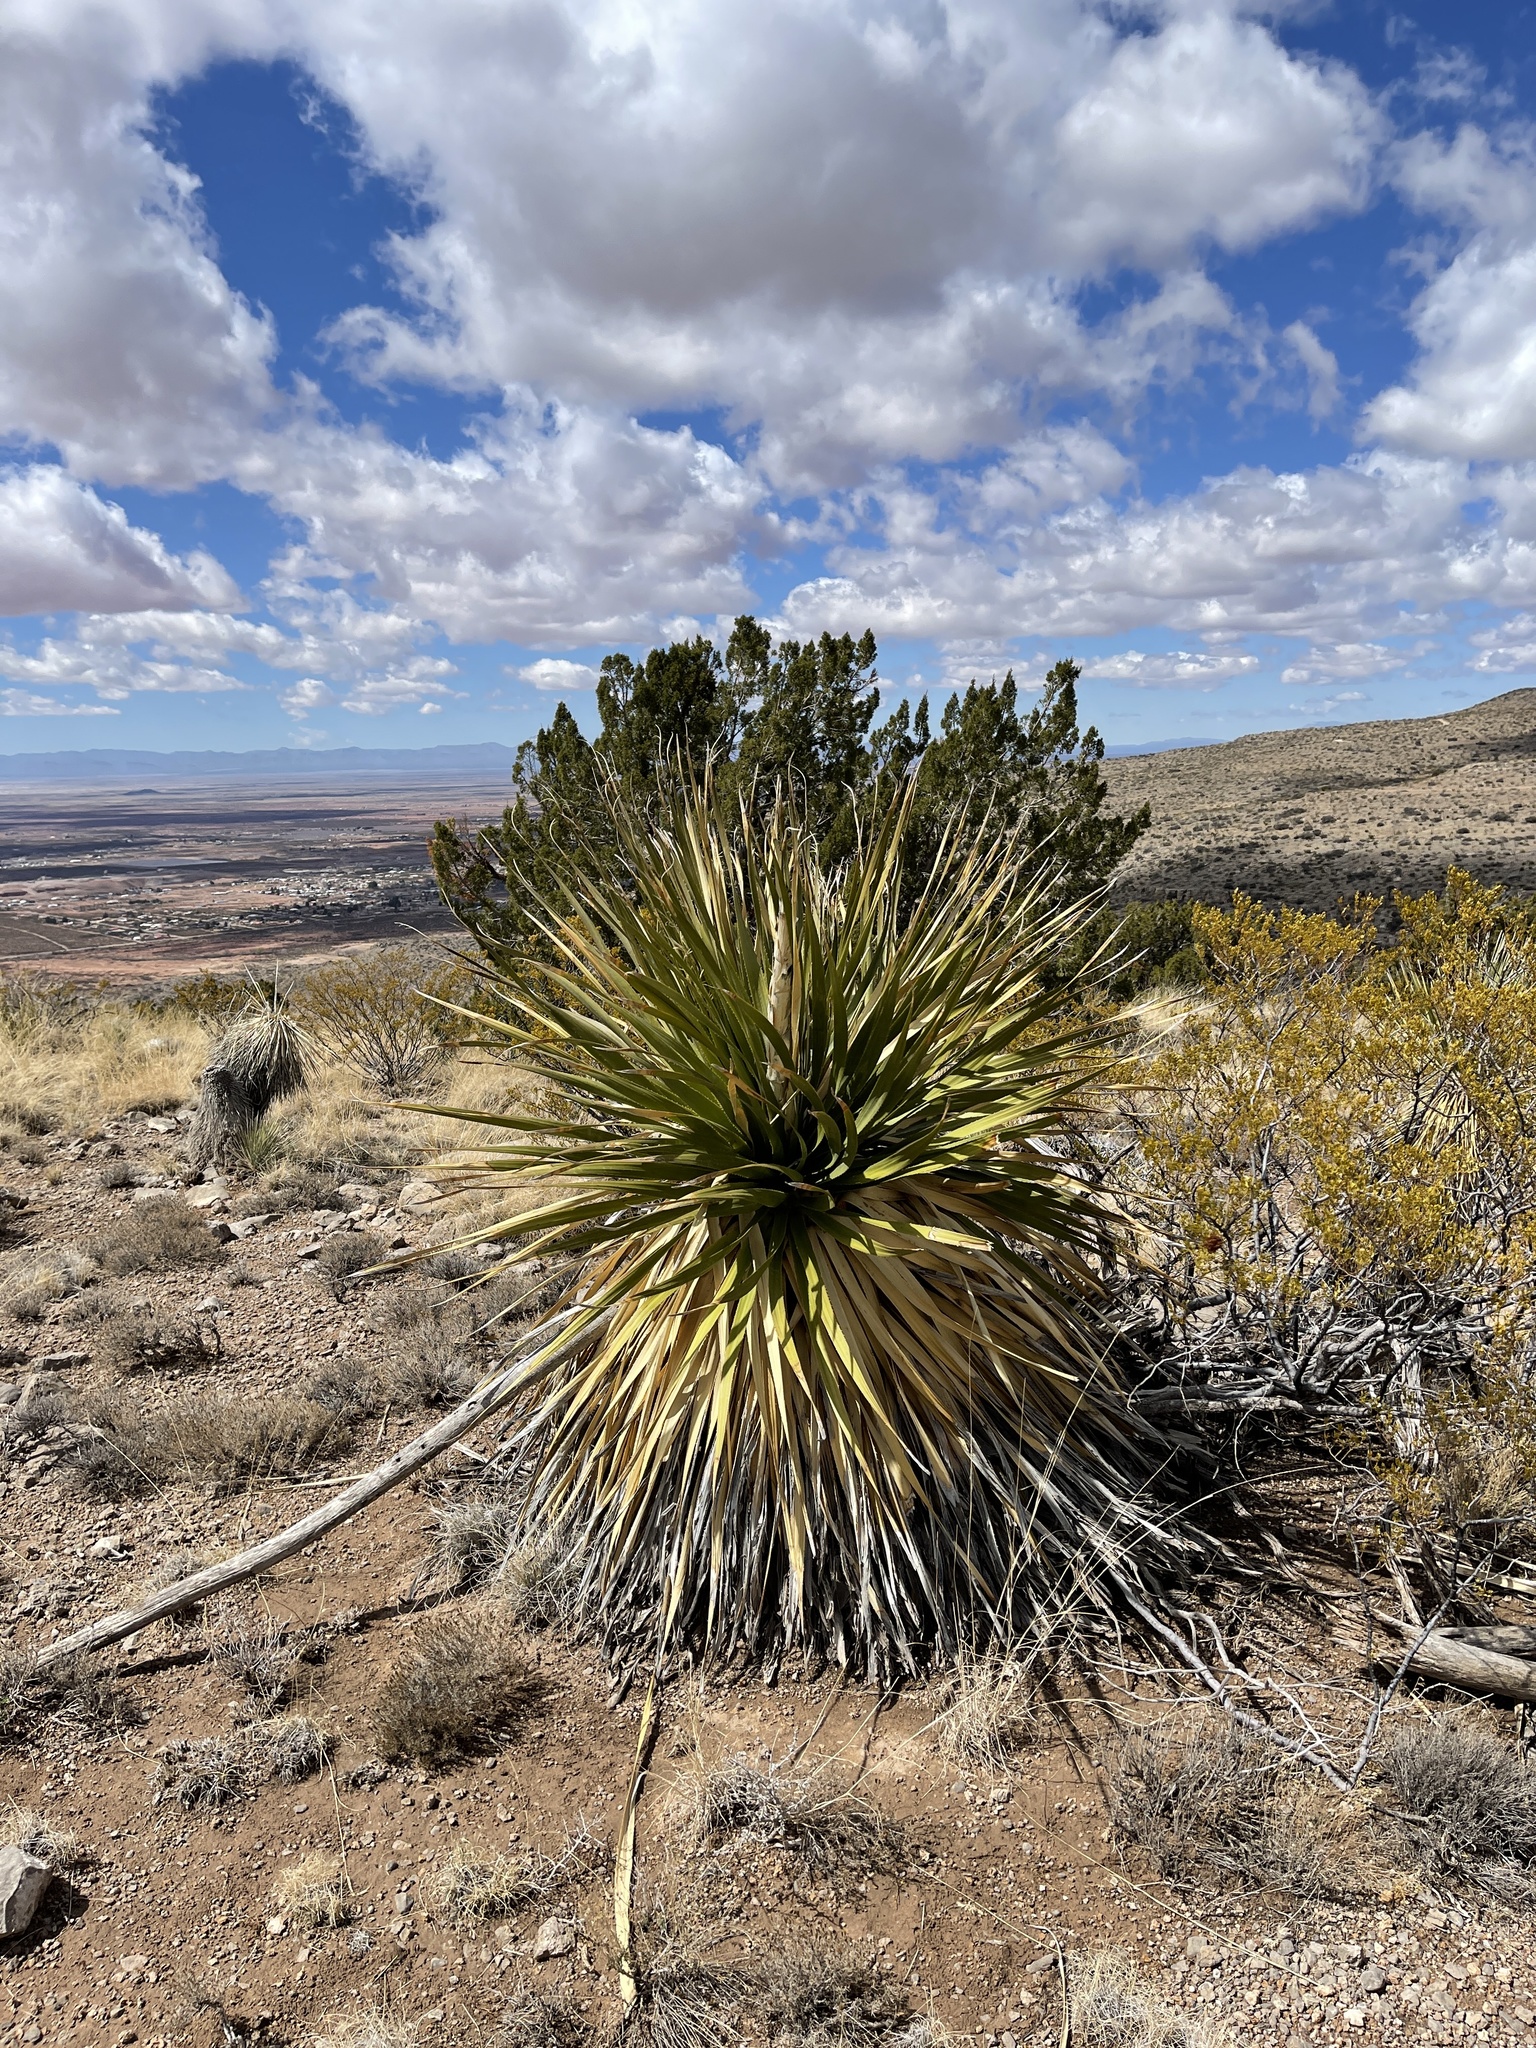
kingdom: Plantae
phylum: Tracheophyta
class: Liliopsida
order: Asparagales
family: Asparagaceae
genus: Dasylirion
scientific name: Dasylirion wheeleri
